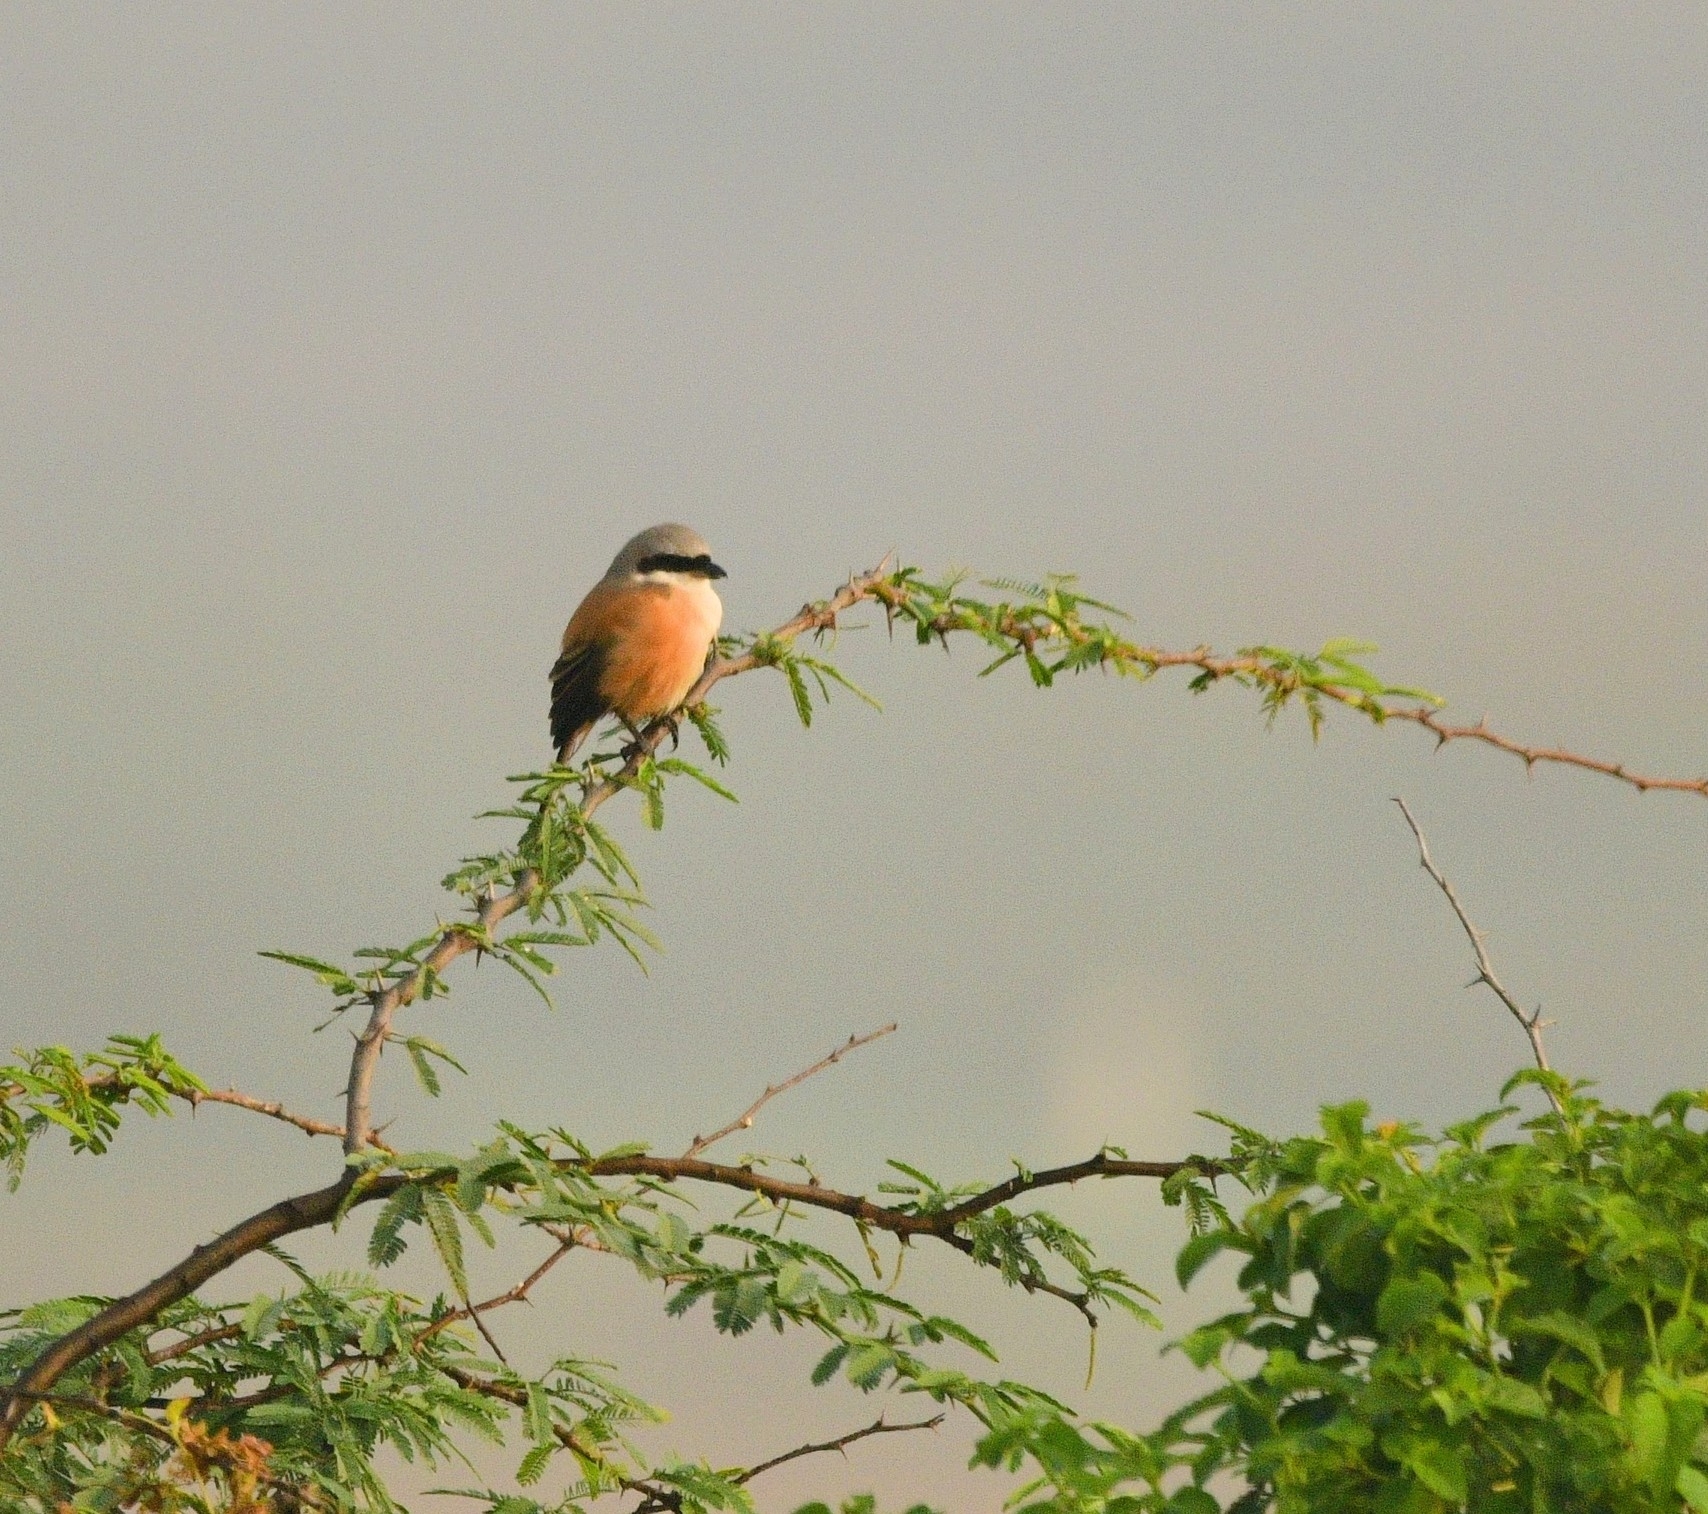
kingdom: Animalia
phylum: Chordata
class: Aves
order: Passeriformes
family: Laniidae
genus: Lanius
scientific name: Lanius schach
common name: Long-tailed shrike
